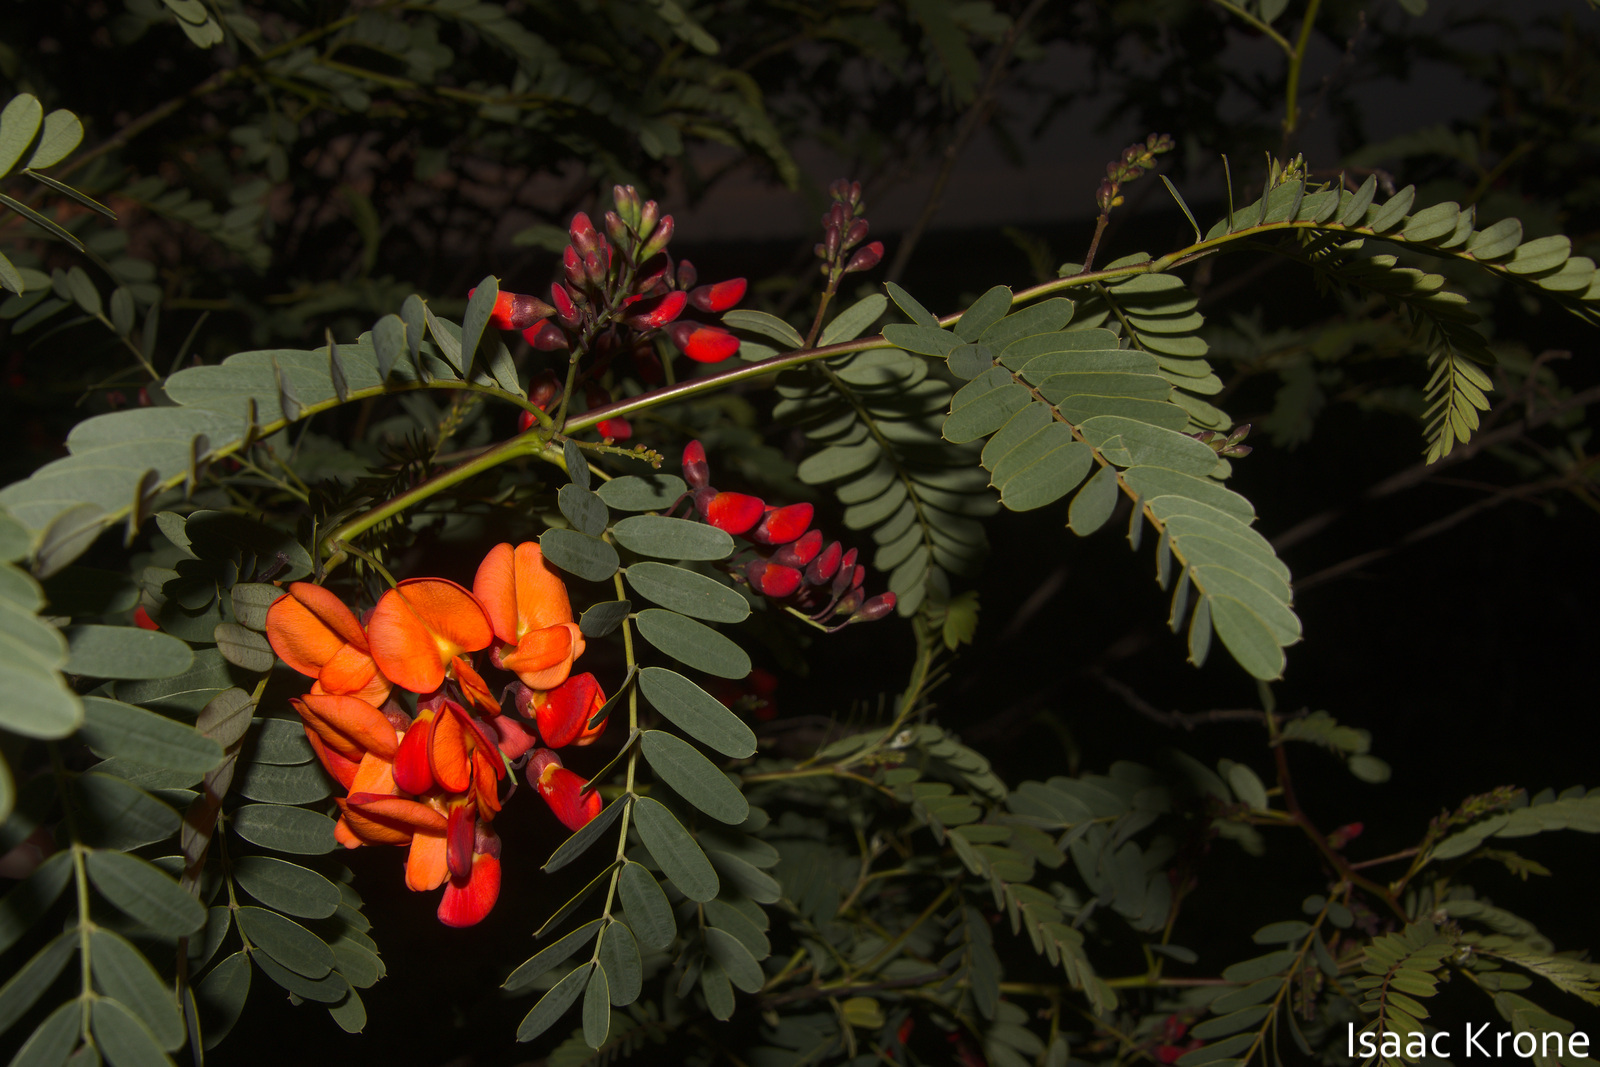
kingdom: Plantae
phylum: Tracheophyta
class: Magnoliopsida
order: Fabales
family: Fabaceae
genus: Sesbania
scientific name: Sesbania punicea
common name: Rattlebox
